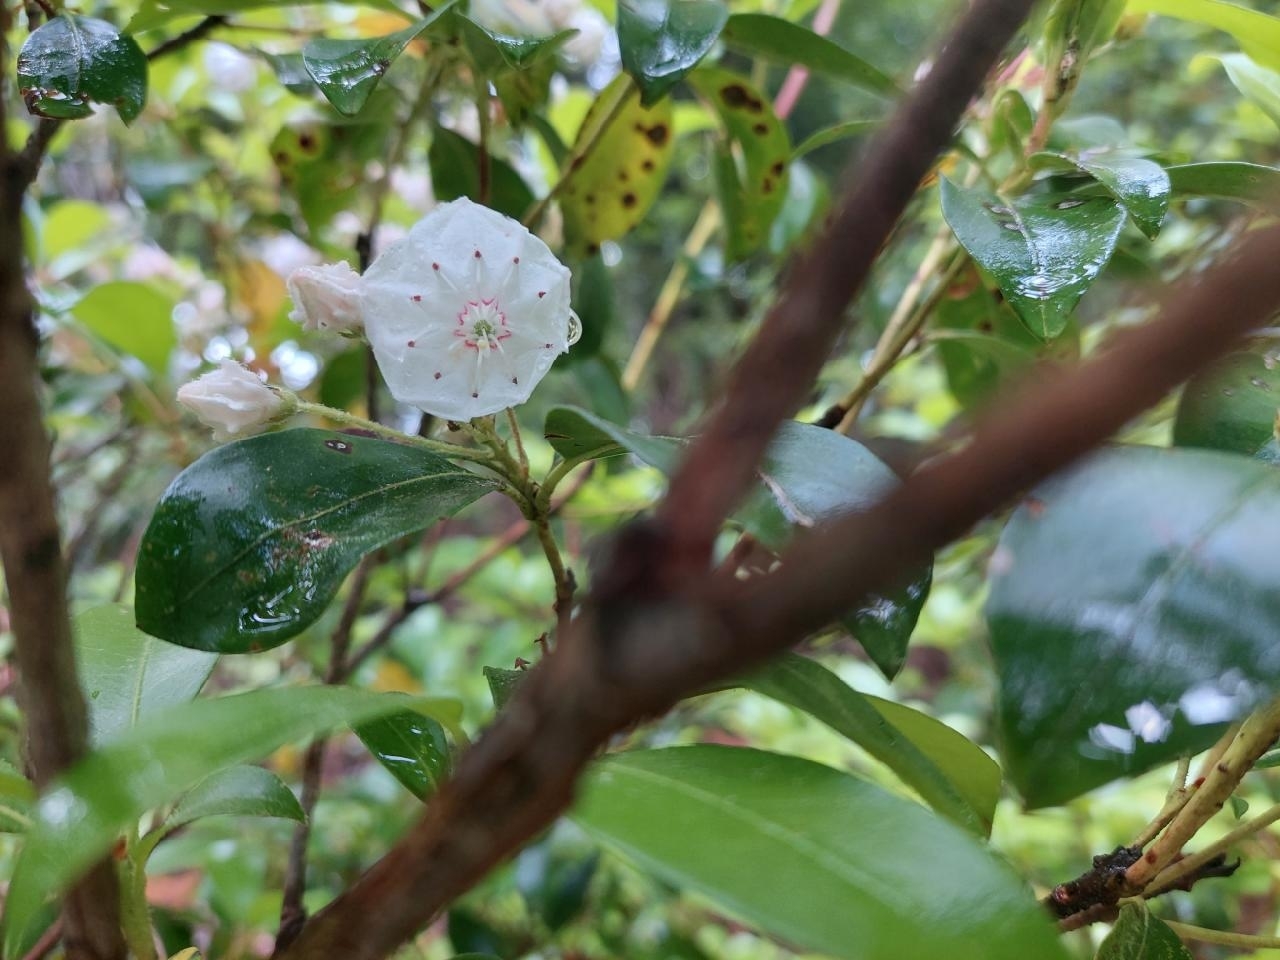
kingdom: Plantae
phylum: Tracheophyta
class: Magnoliopsida
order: Ericales
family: Ericaceae
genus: Kalmia
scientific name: Kalmia latifolia
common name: Mountain-laurel
